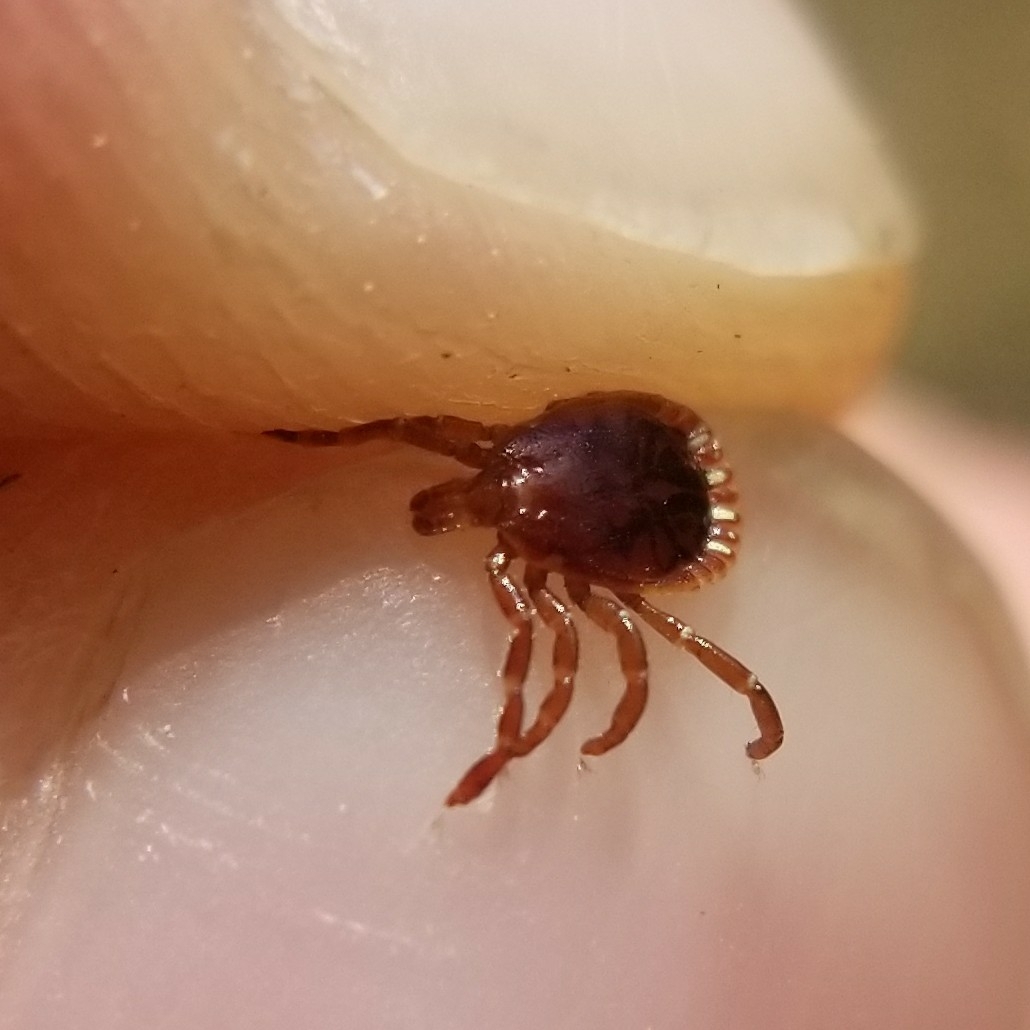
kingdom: Animalia
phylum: Arthropoda
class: Arachnida
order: Ixodida
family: Ixodidae
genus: Amblyomma
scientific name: Amblyomma americanum
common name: Lone star tick
